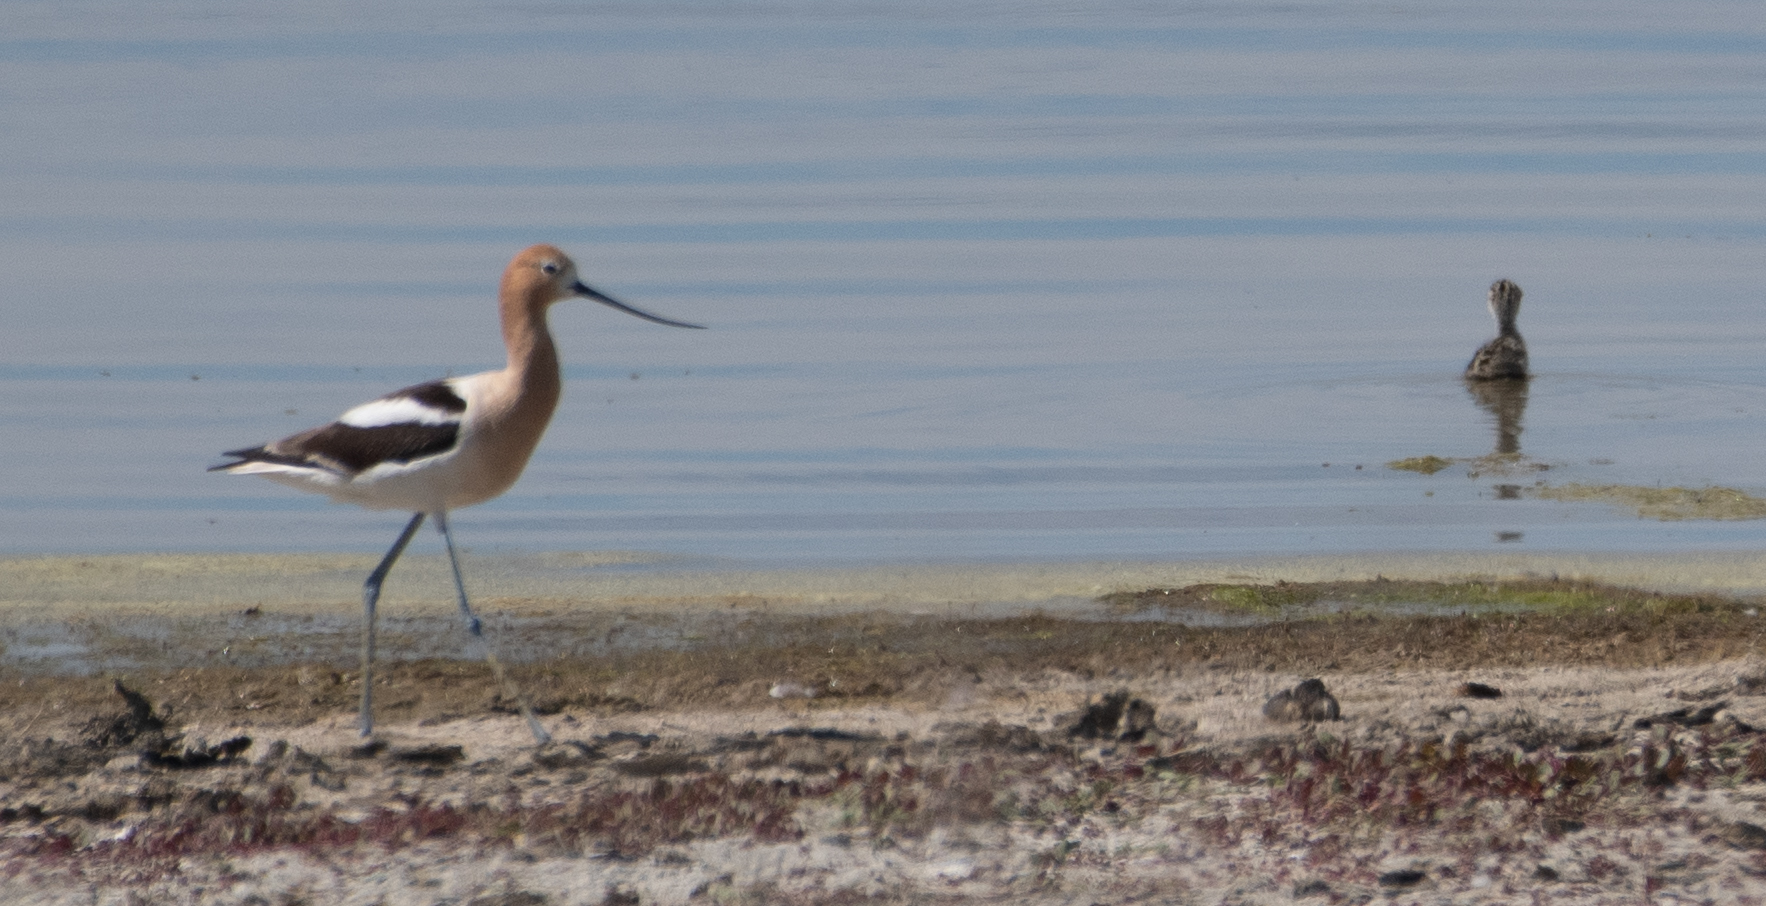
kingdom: Animalia
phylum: Chordata
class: Aves
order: Charadriiformes
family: Recurvirostridae
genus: Recurvirostra
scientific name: Recurvirostra americana
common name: American avocet
